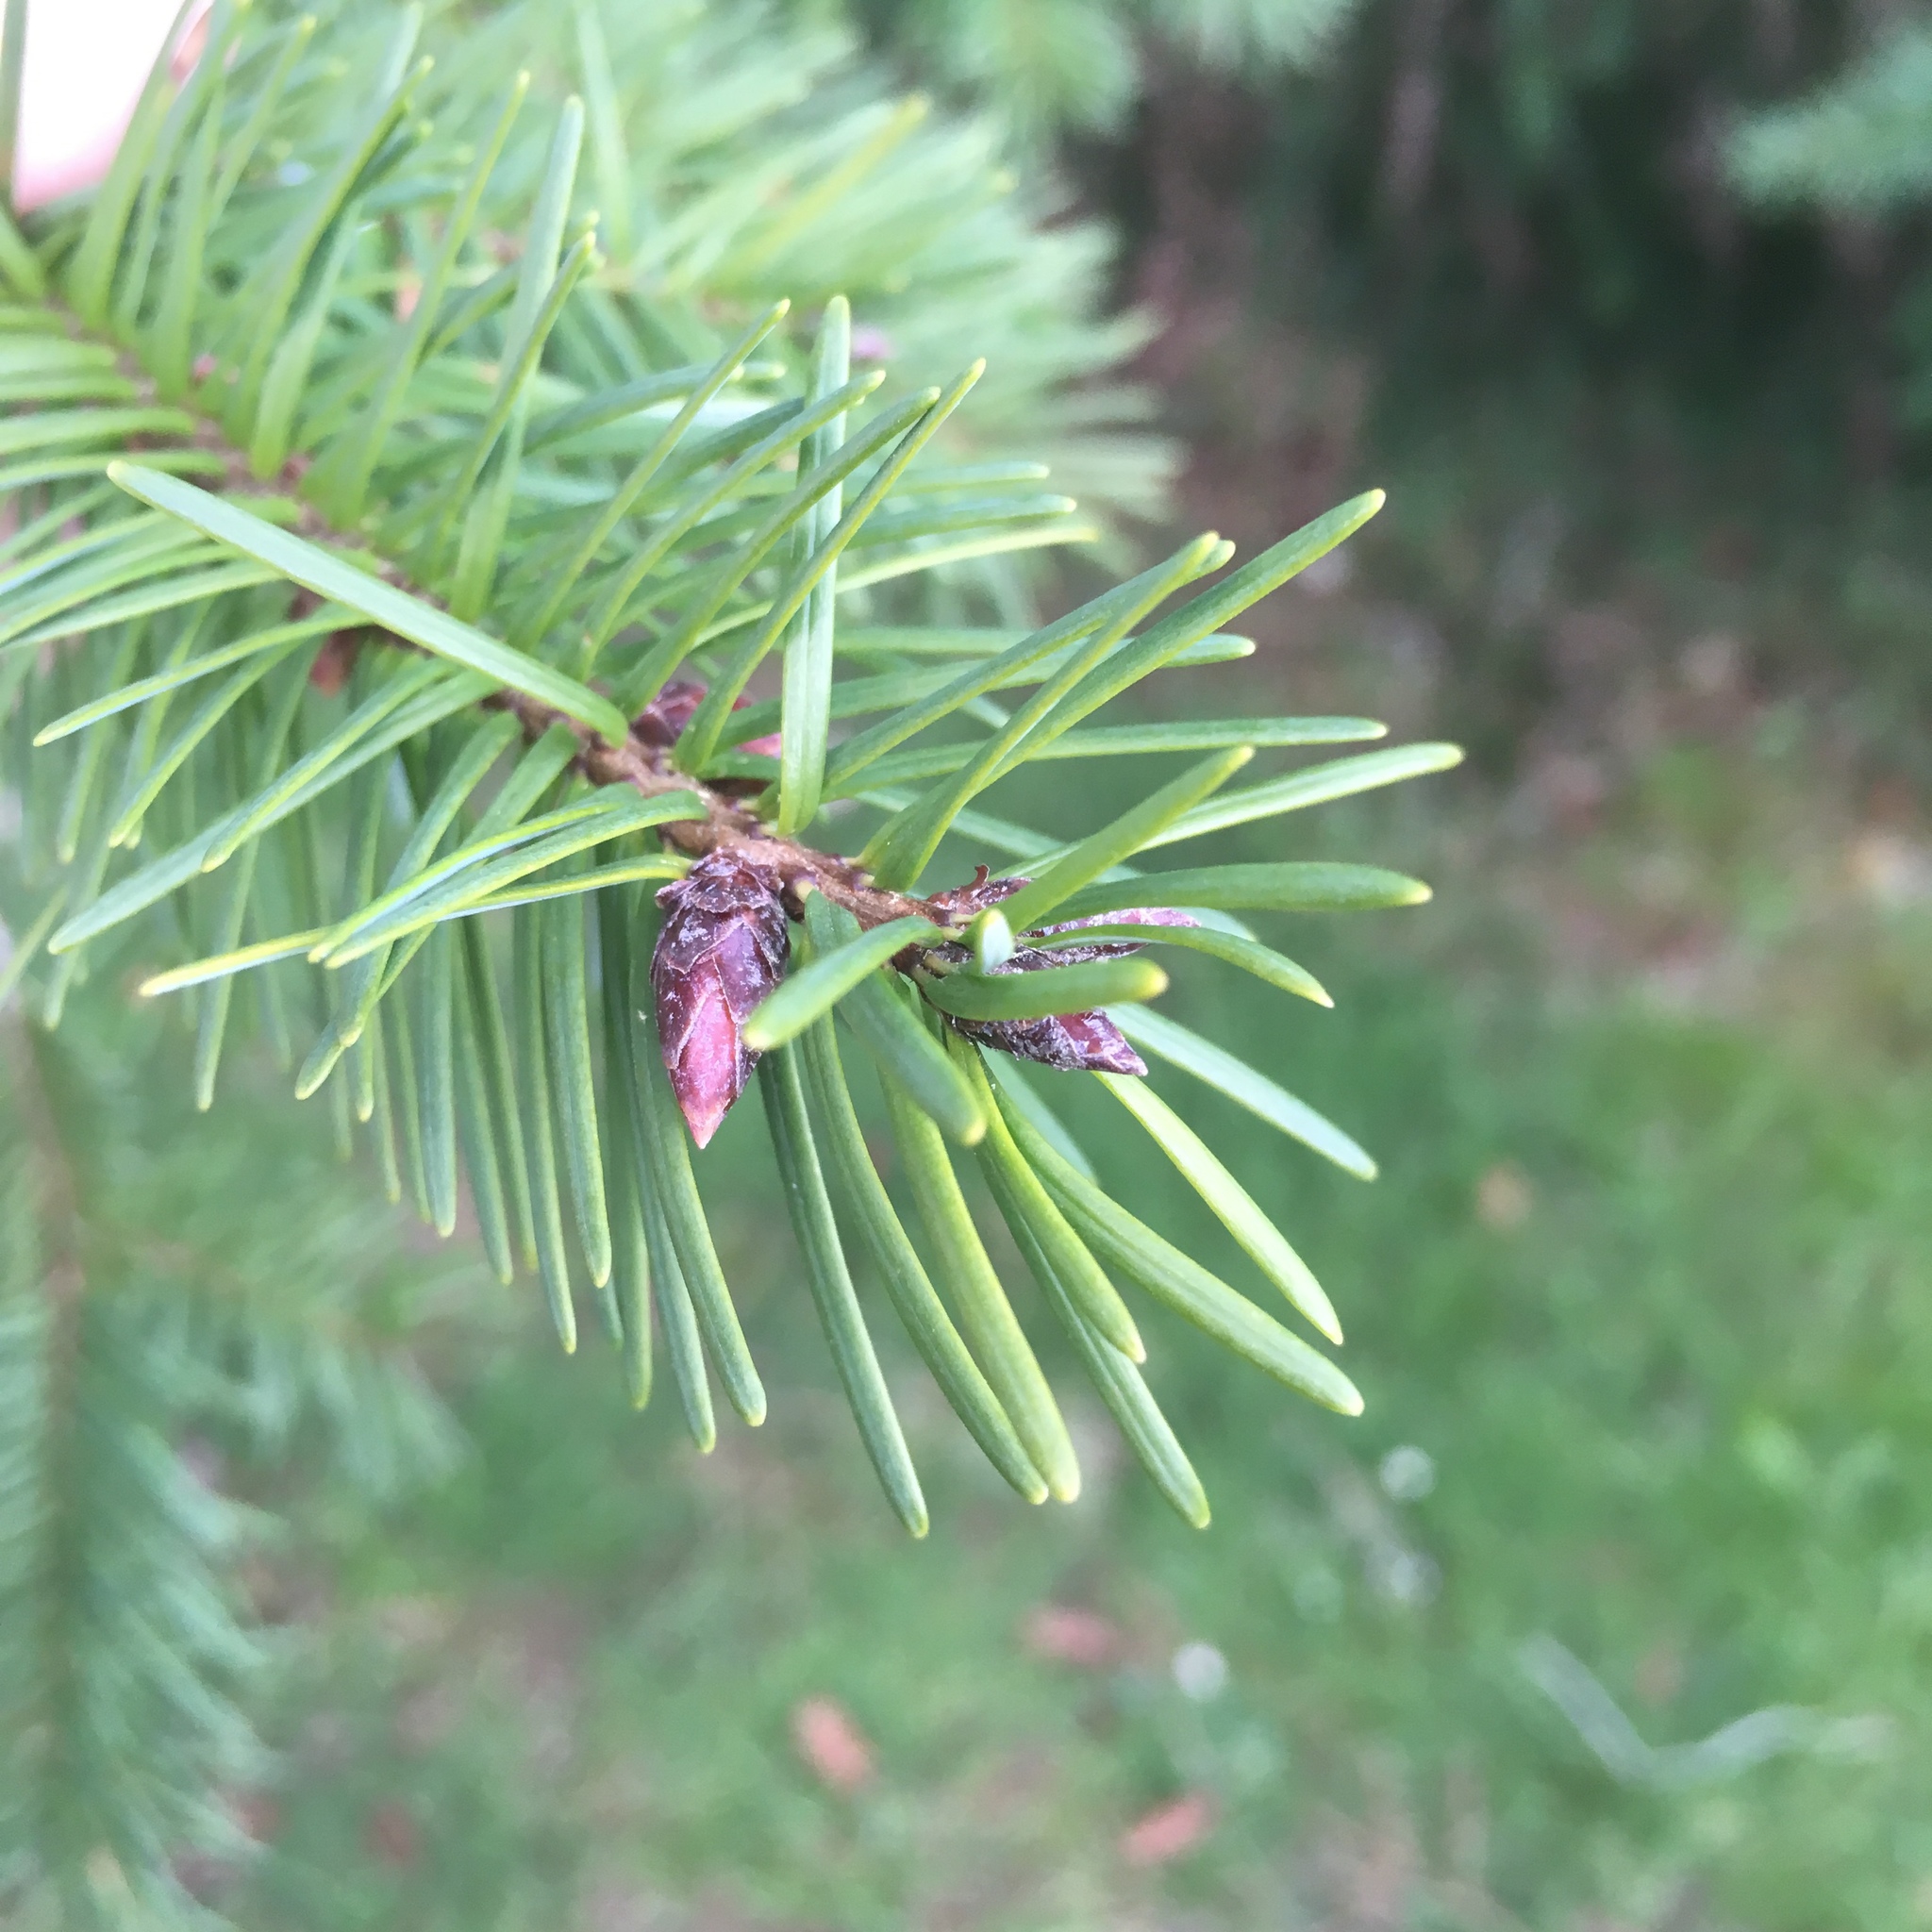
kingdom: Plantae
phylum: Tracheophyta
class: Pinopsida
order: Pinales
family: Pinaceae
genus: Pseudotsuga
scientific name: Pseudotsuga menziesii
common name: Douglas fir
